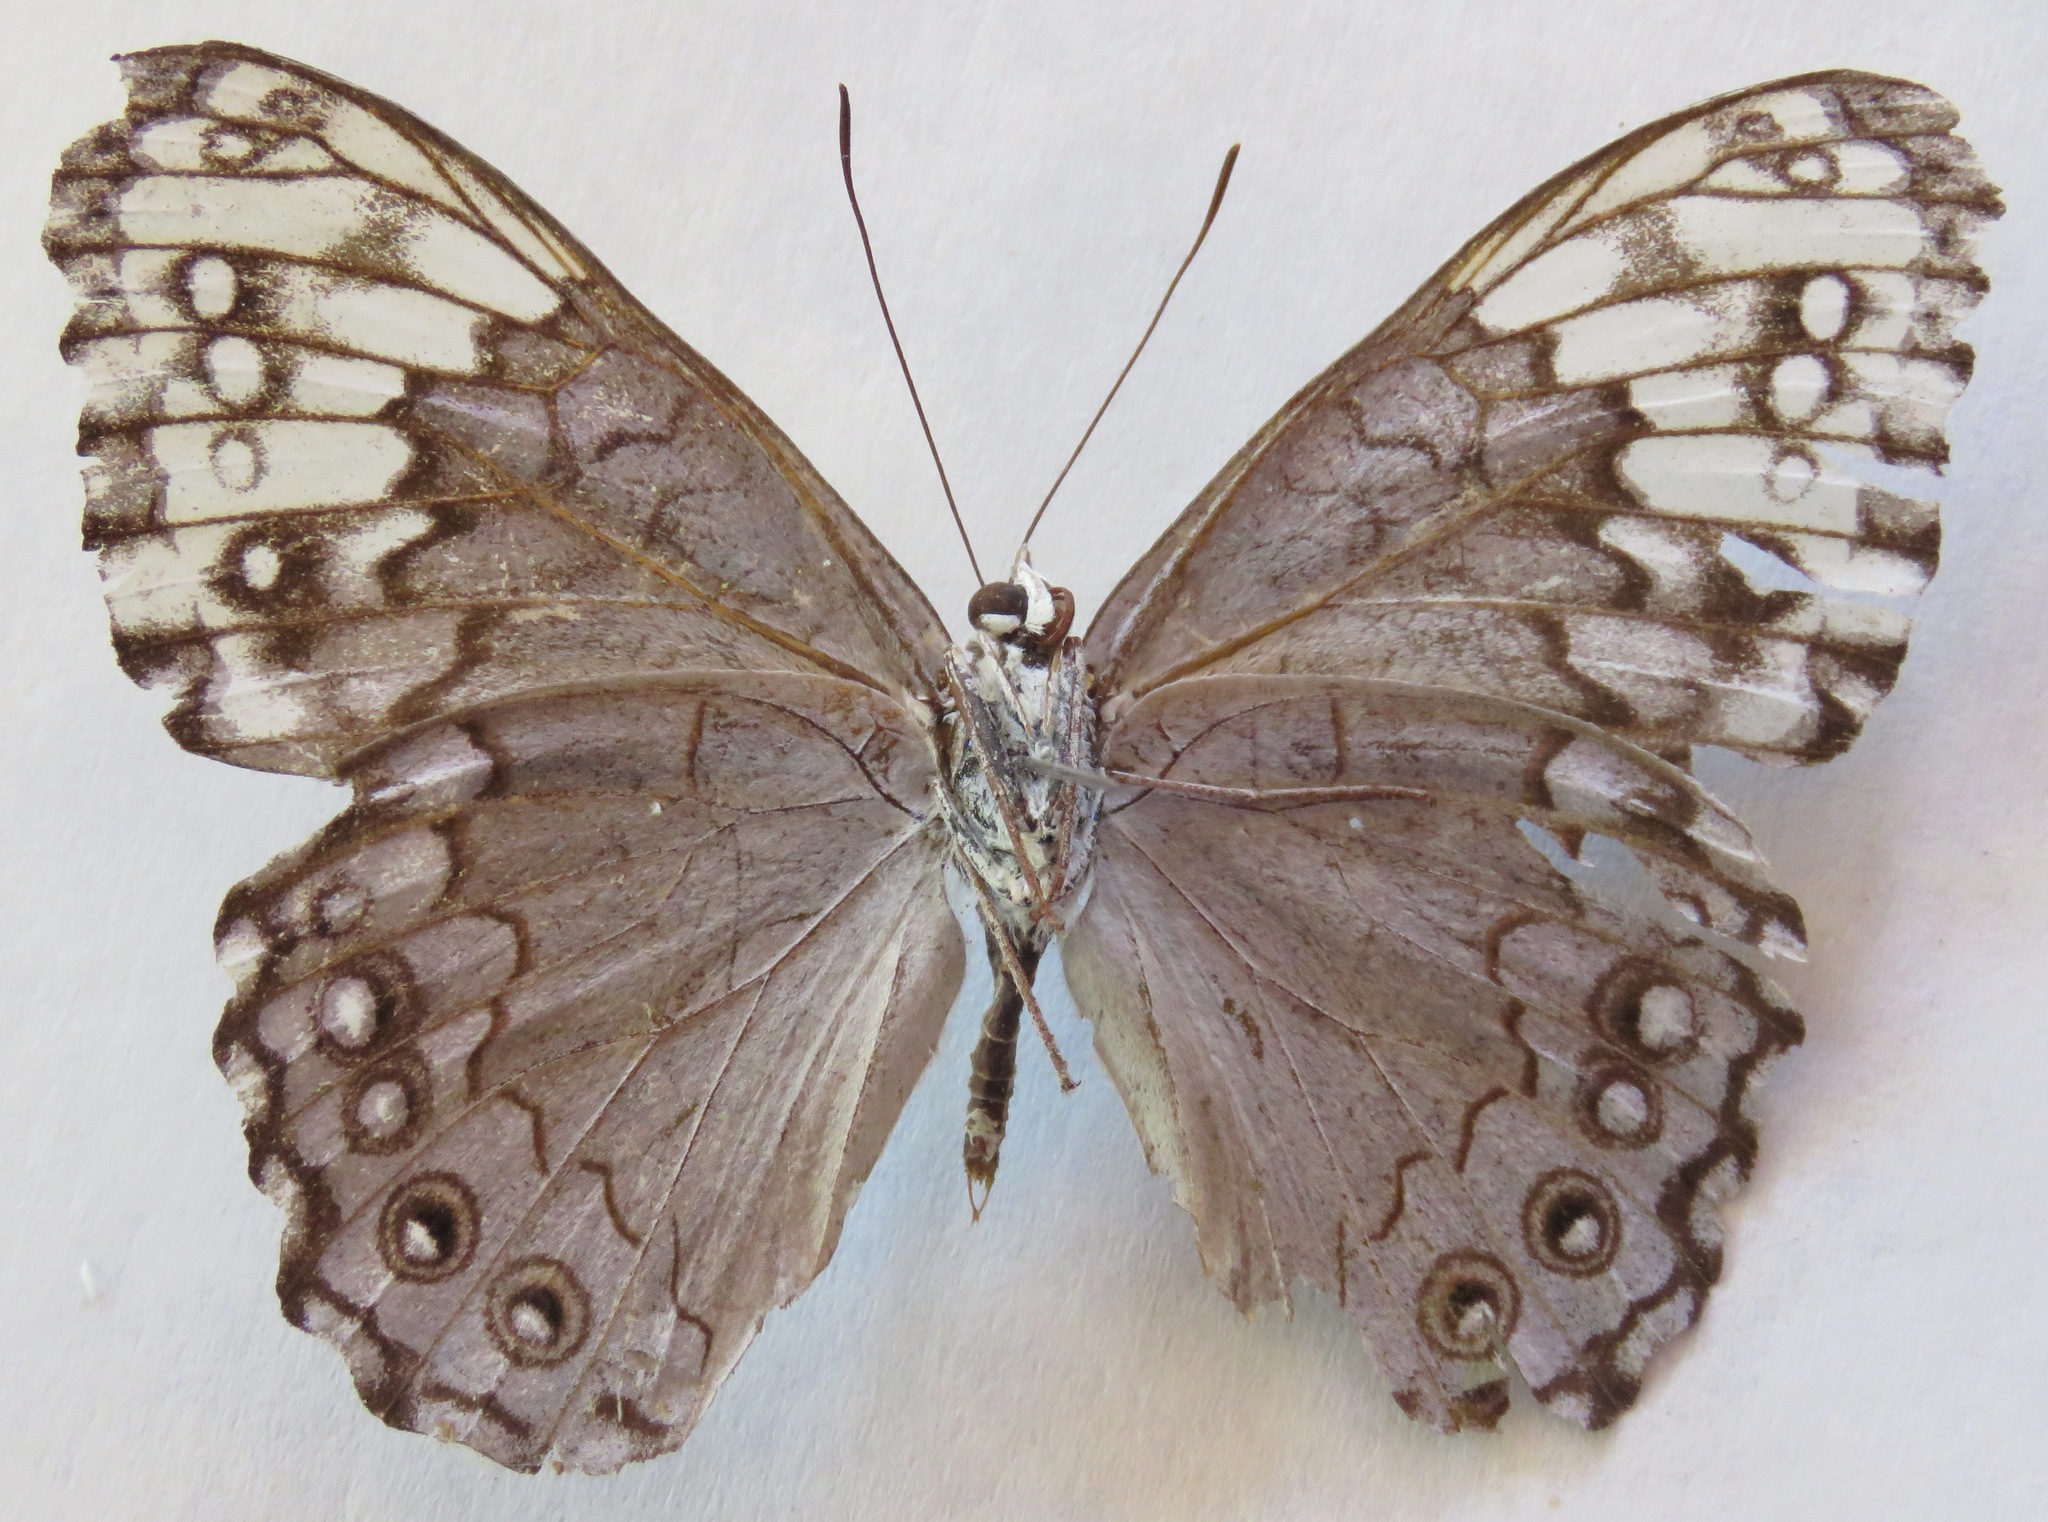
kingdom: Animalia
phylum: Arthropoda
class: Insecta
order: Lepidoptera
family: Nymphalidae
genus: Hamadryas
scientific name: Hamadryas glauconome
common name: Glaucous cracker
